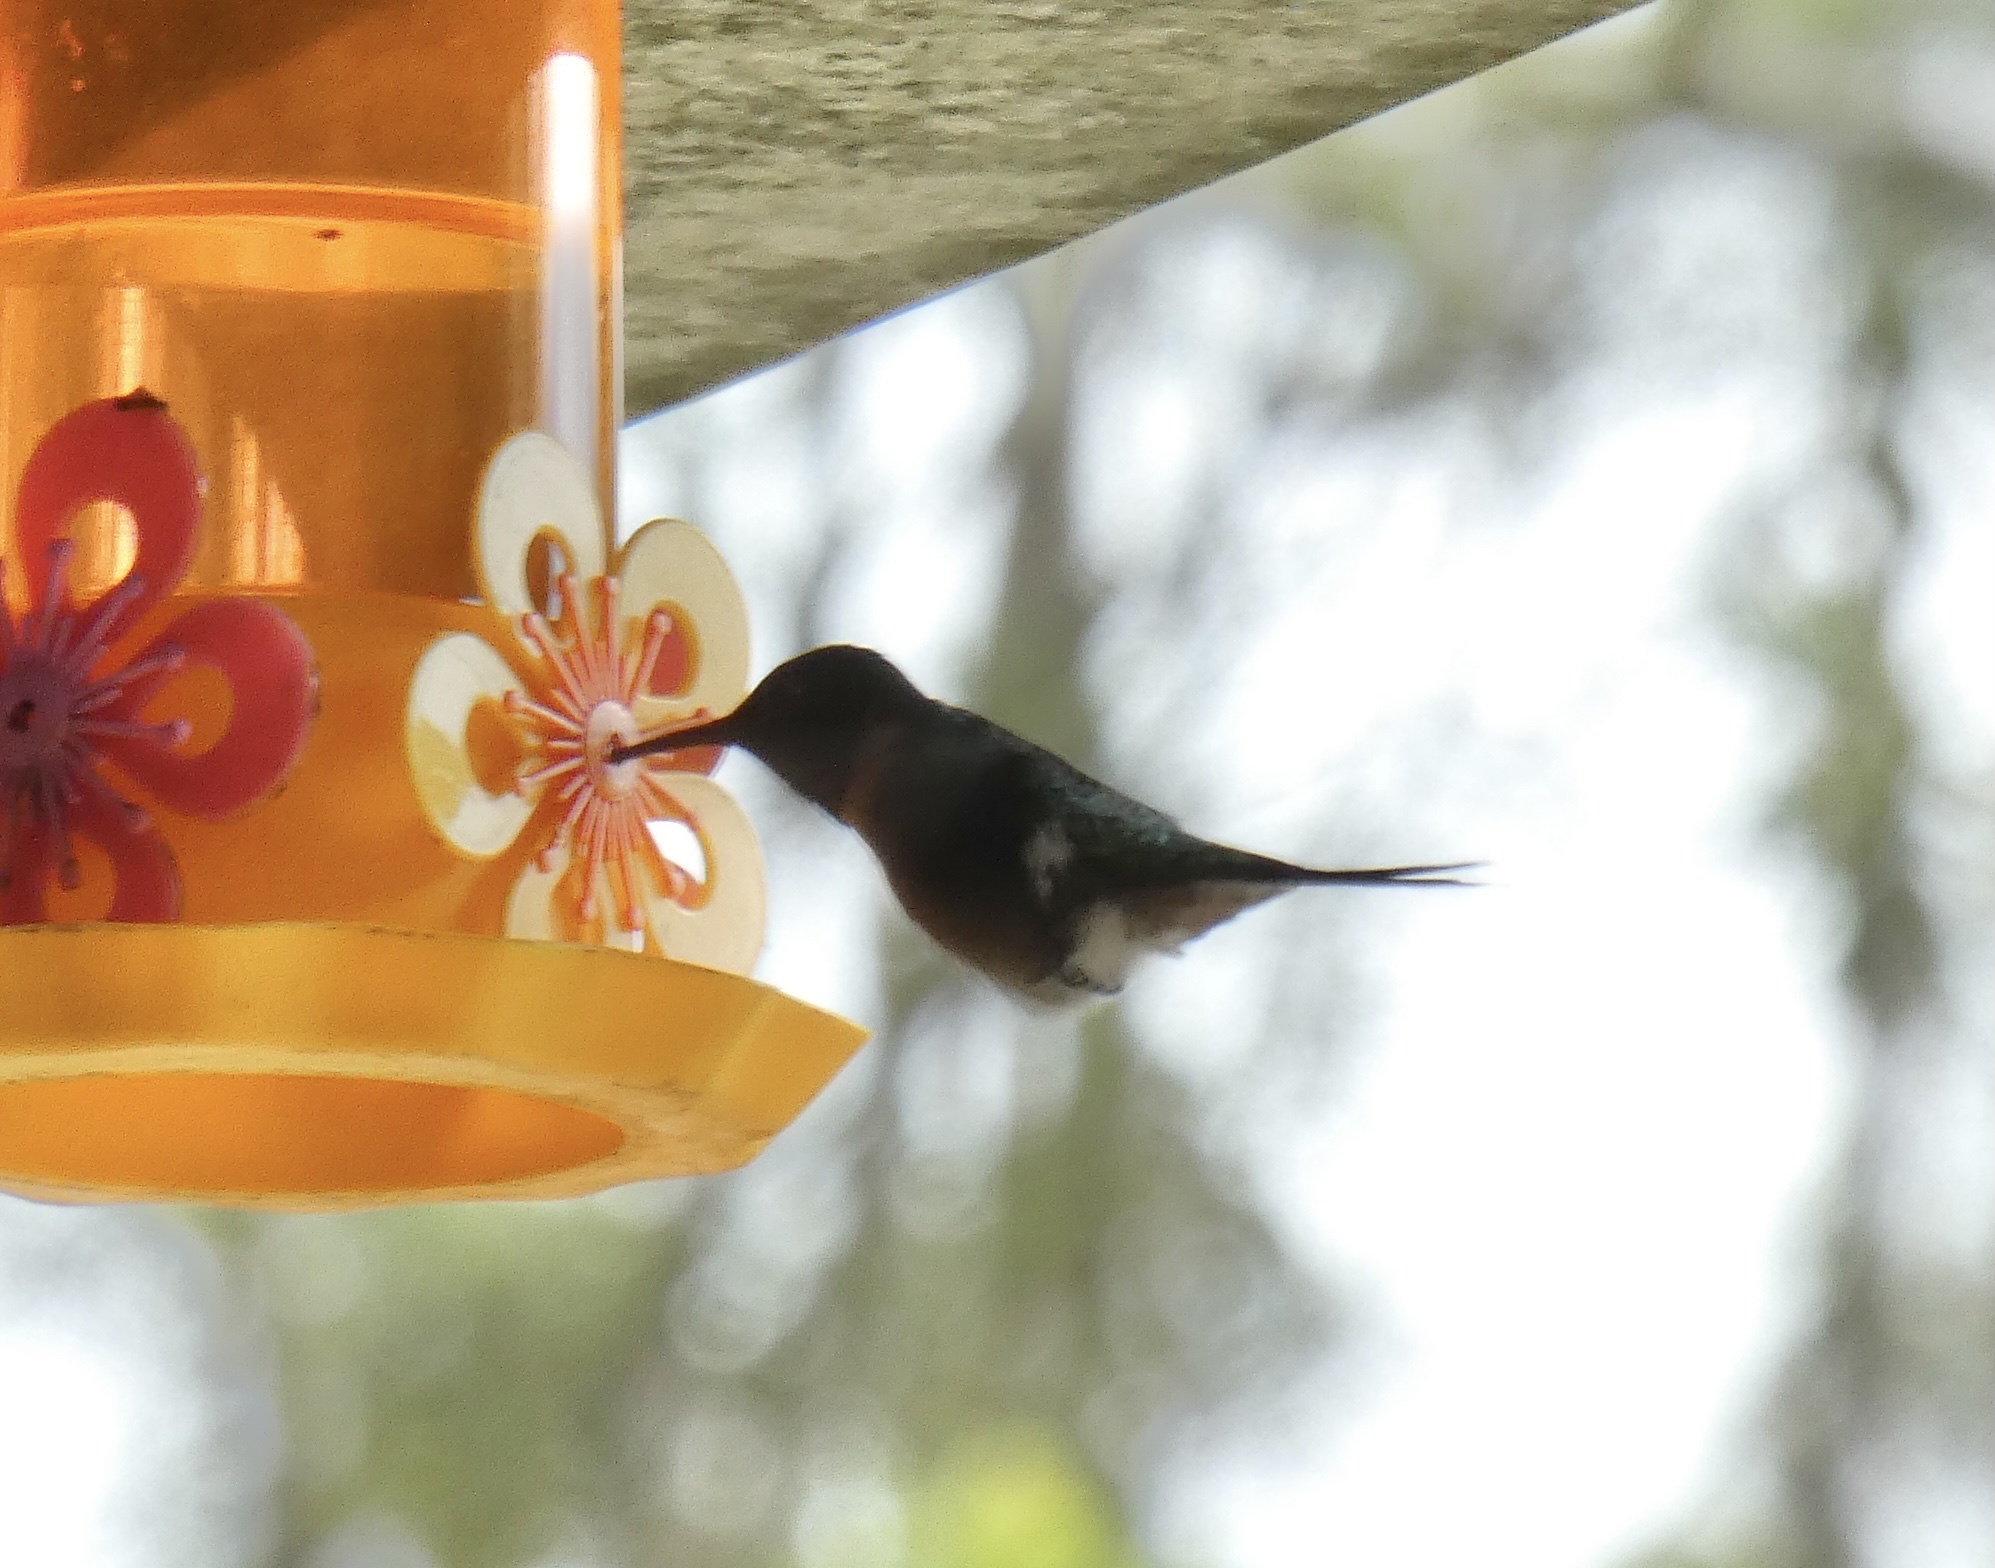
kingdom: Animalia
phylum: Chordata
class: Aves
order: Apodiformes
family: Trochilidae
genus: Calliphlox
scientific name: Calliphlox amethystina
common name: Amethyst woodstar
